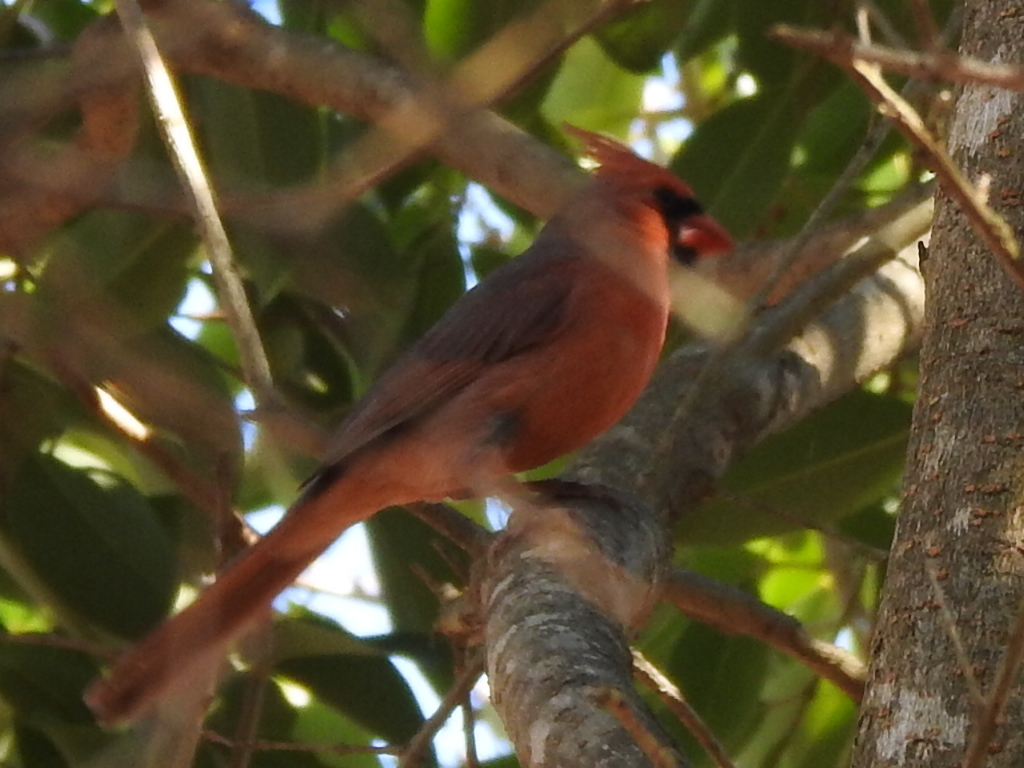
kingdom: Animalia
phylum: Chordata
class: Aves
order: Passeriformes
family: Cardinalidae
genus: Cardinalis
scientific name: Cardinalis cardinalis
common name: Northern cardinal
